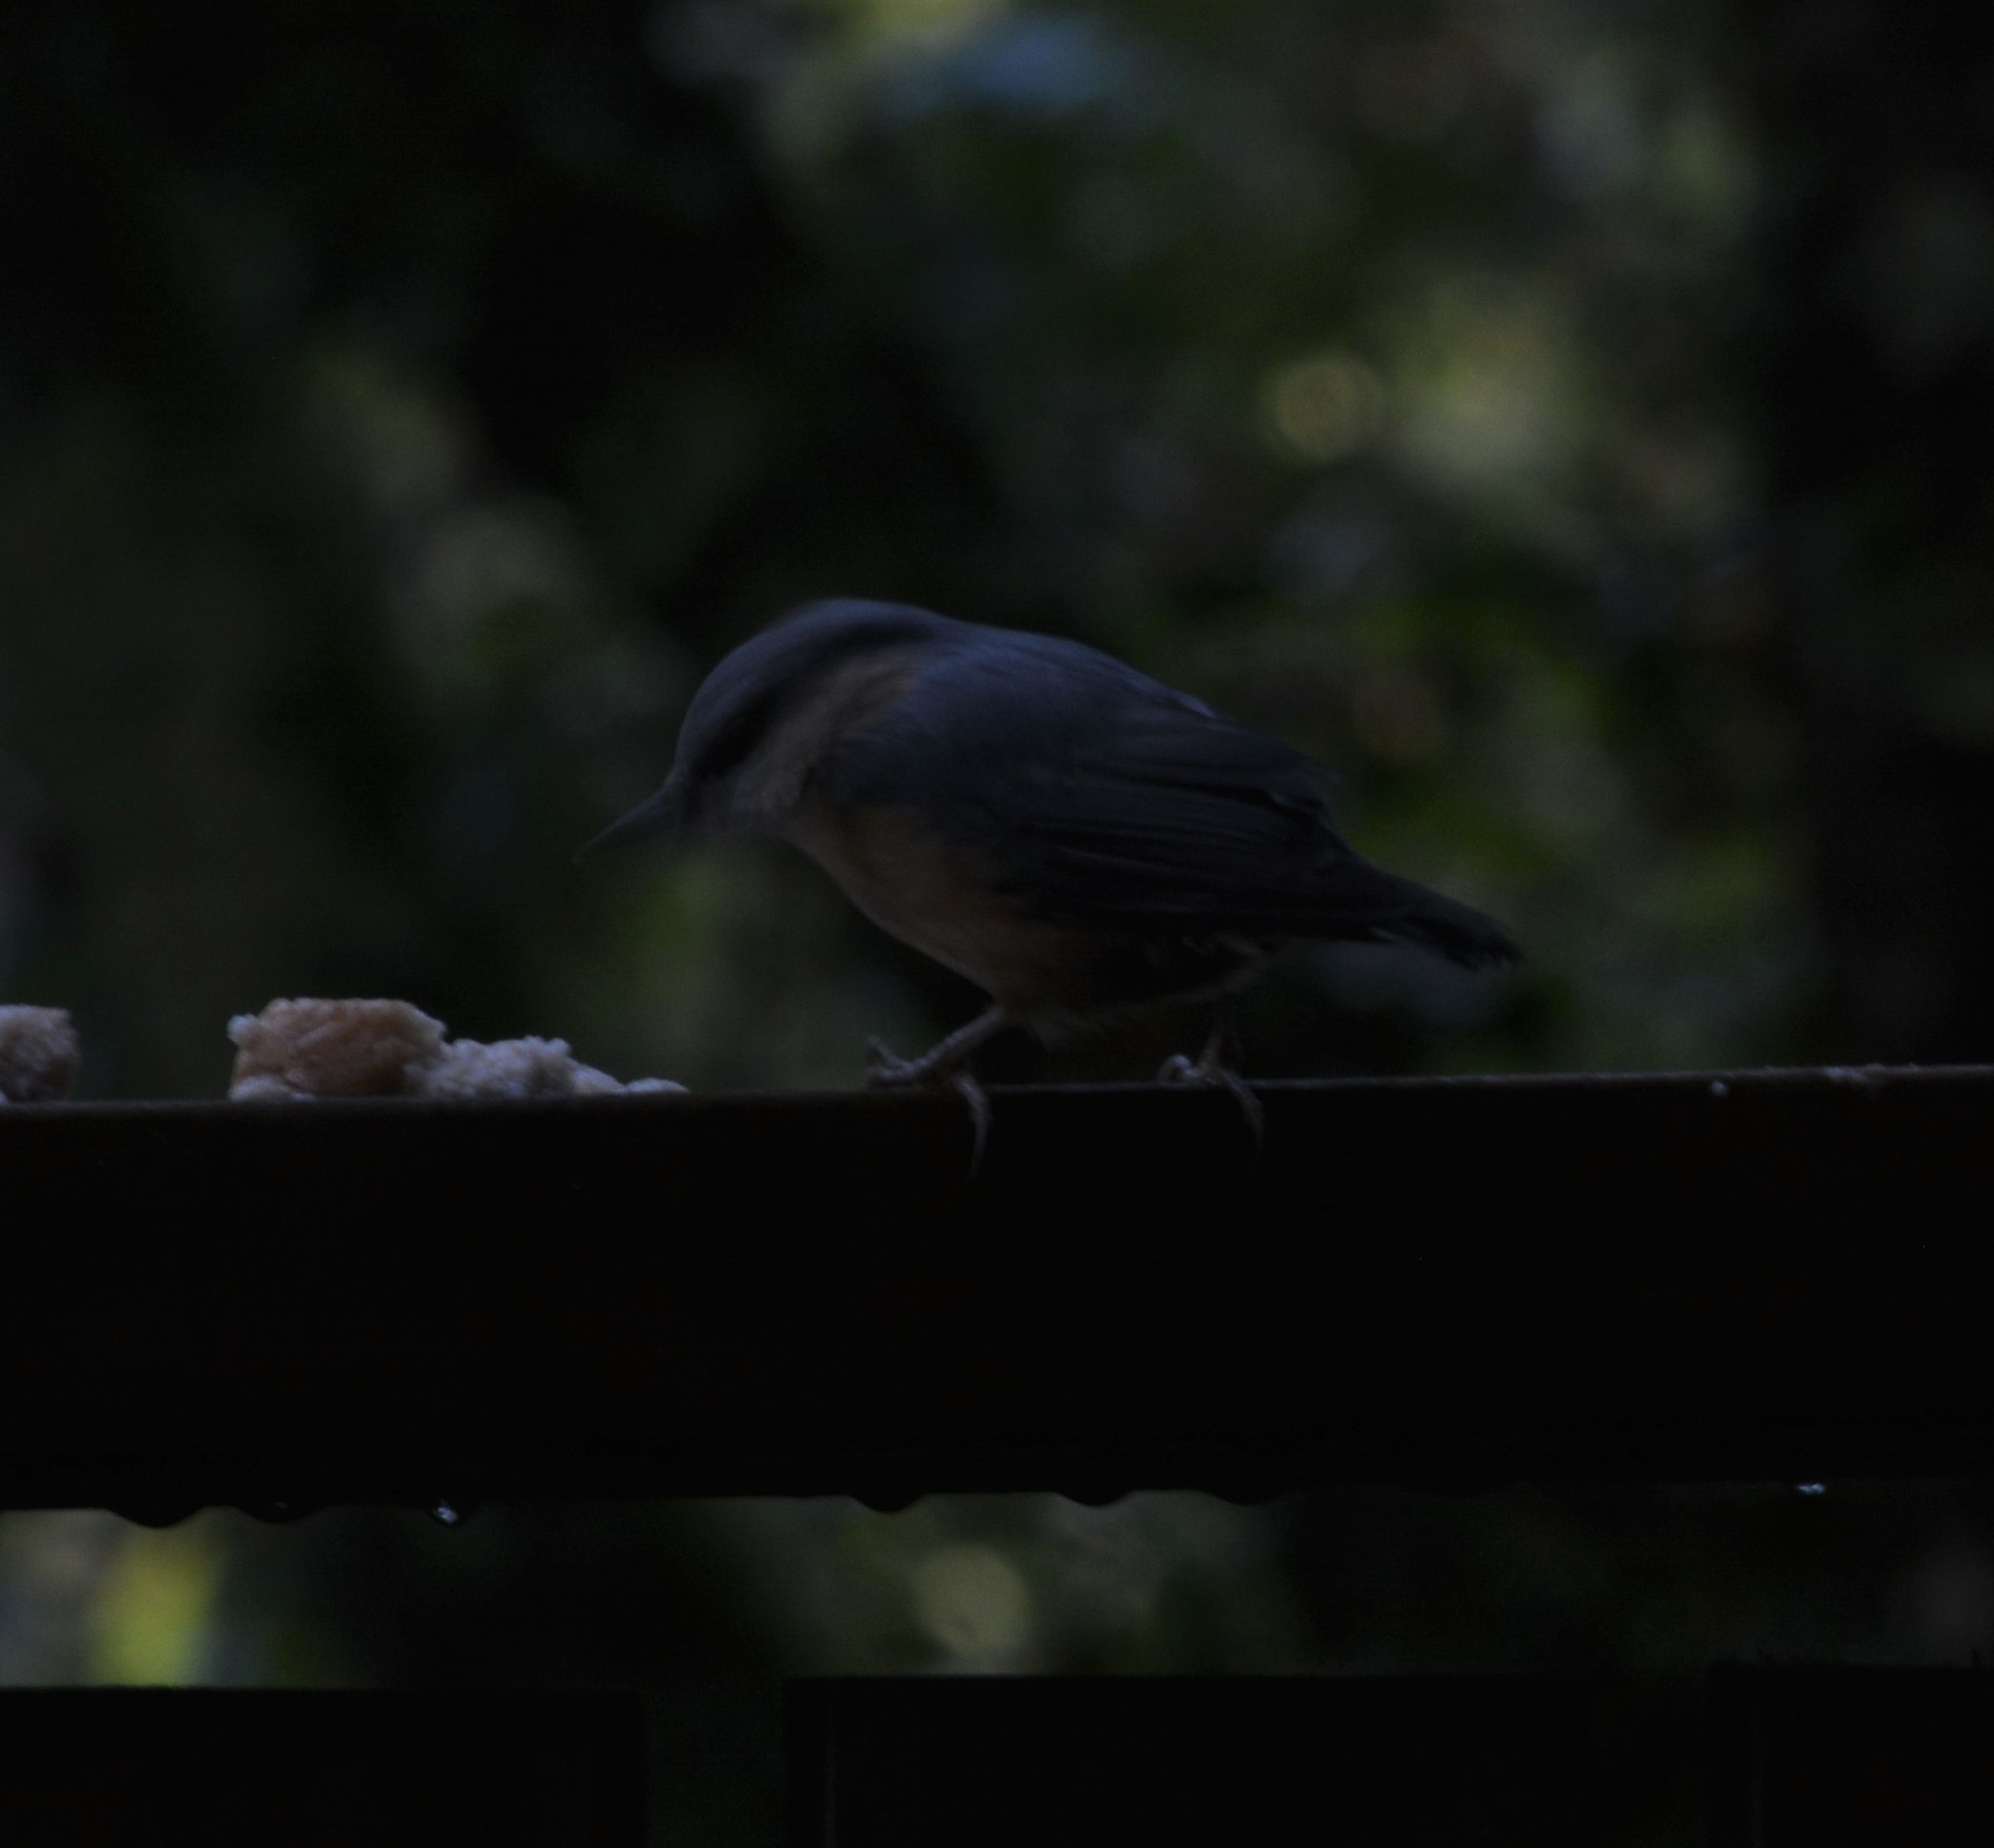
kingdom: Animalia
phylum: Chordata
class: Aves
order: Passeriformes
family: Sittidae
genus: Sitta
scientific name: Sitta europaea
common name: Eurasian nuthatch
